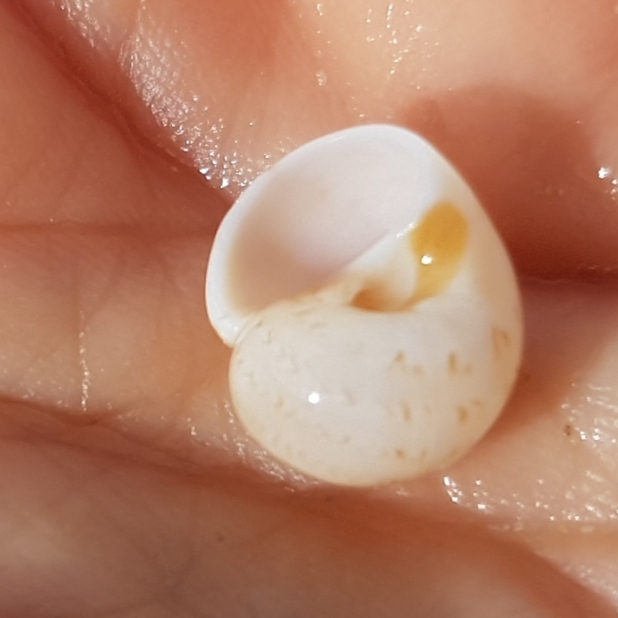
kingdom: Animalia
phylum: Mollusca
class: Gastropoda
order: Littorinimorpha
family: Naticidae
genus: Euspira
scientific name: Euspira nitida
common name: Alder's necklace shell
